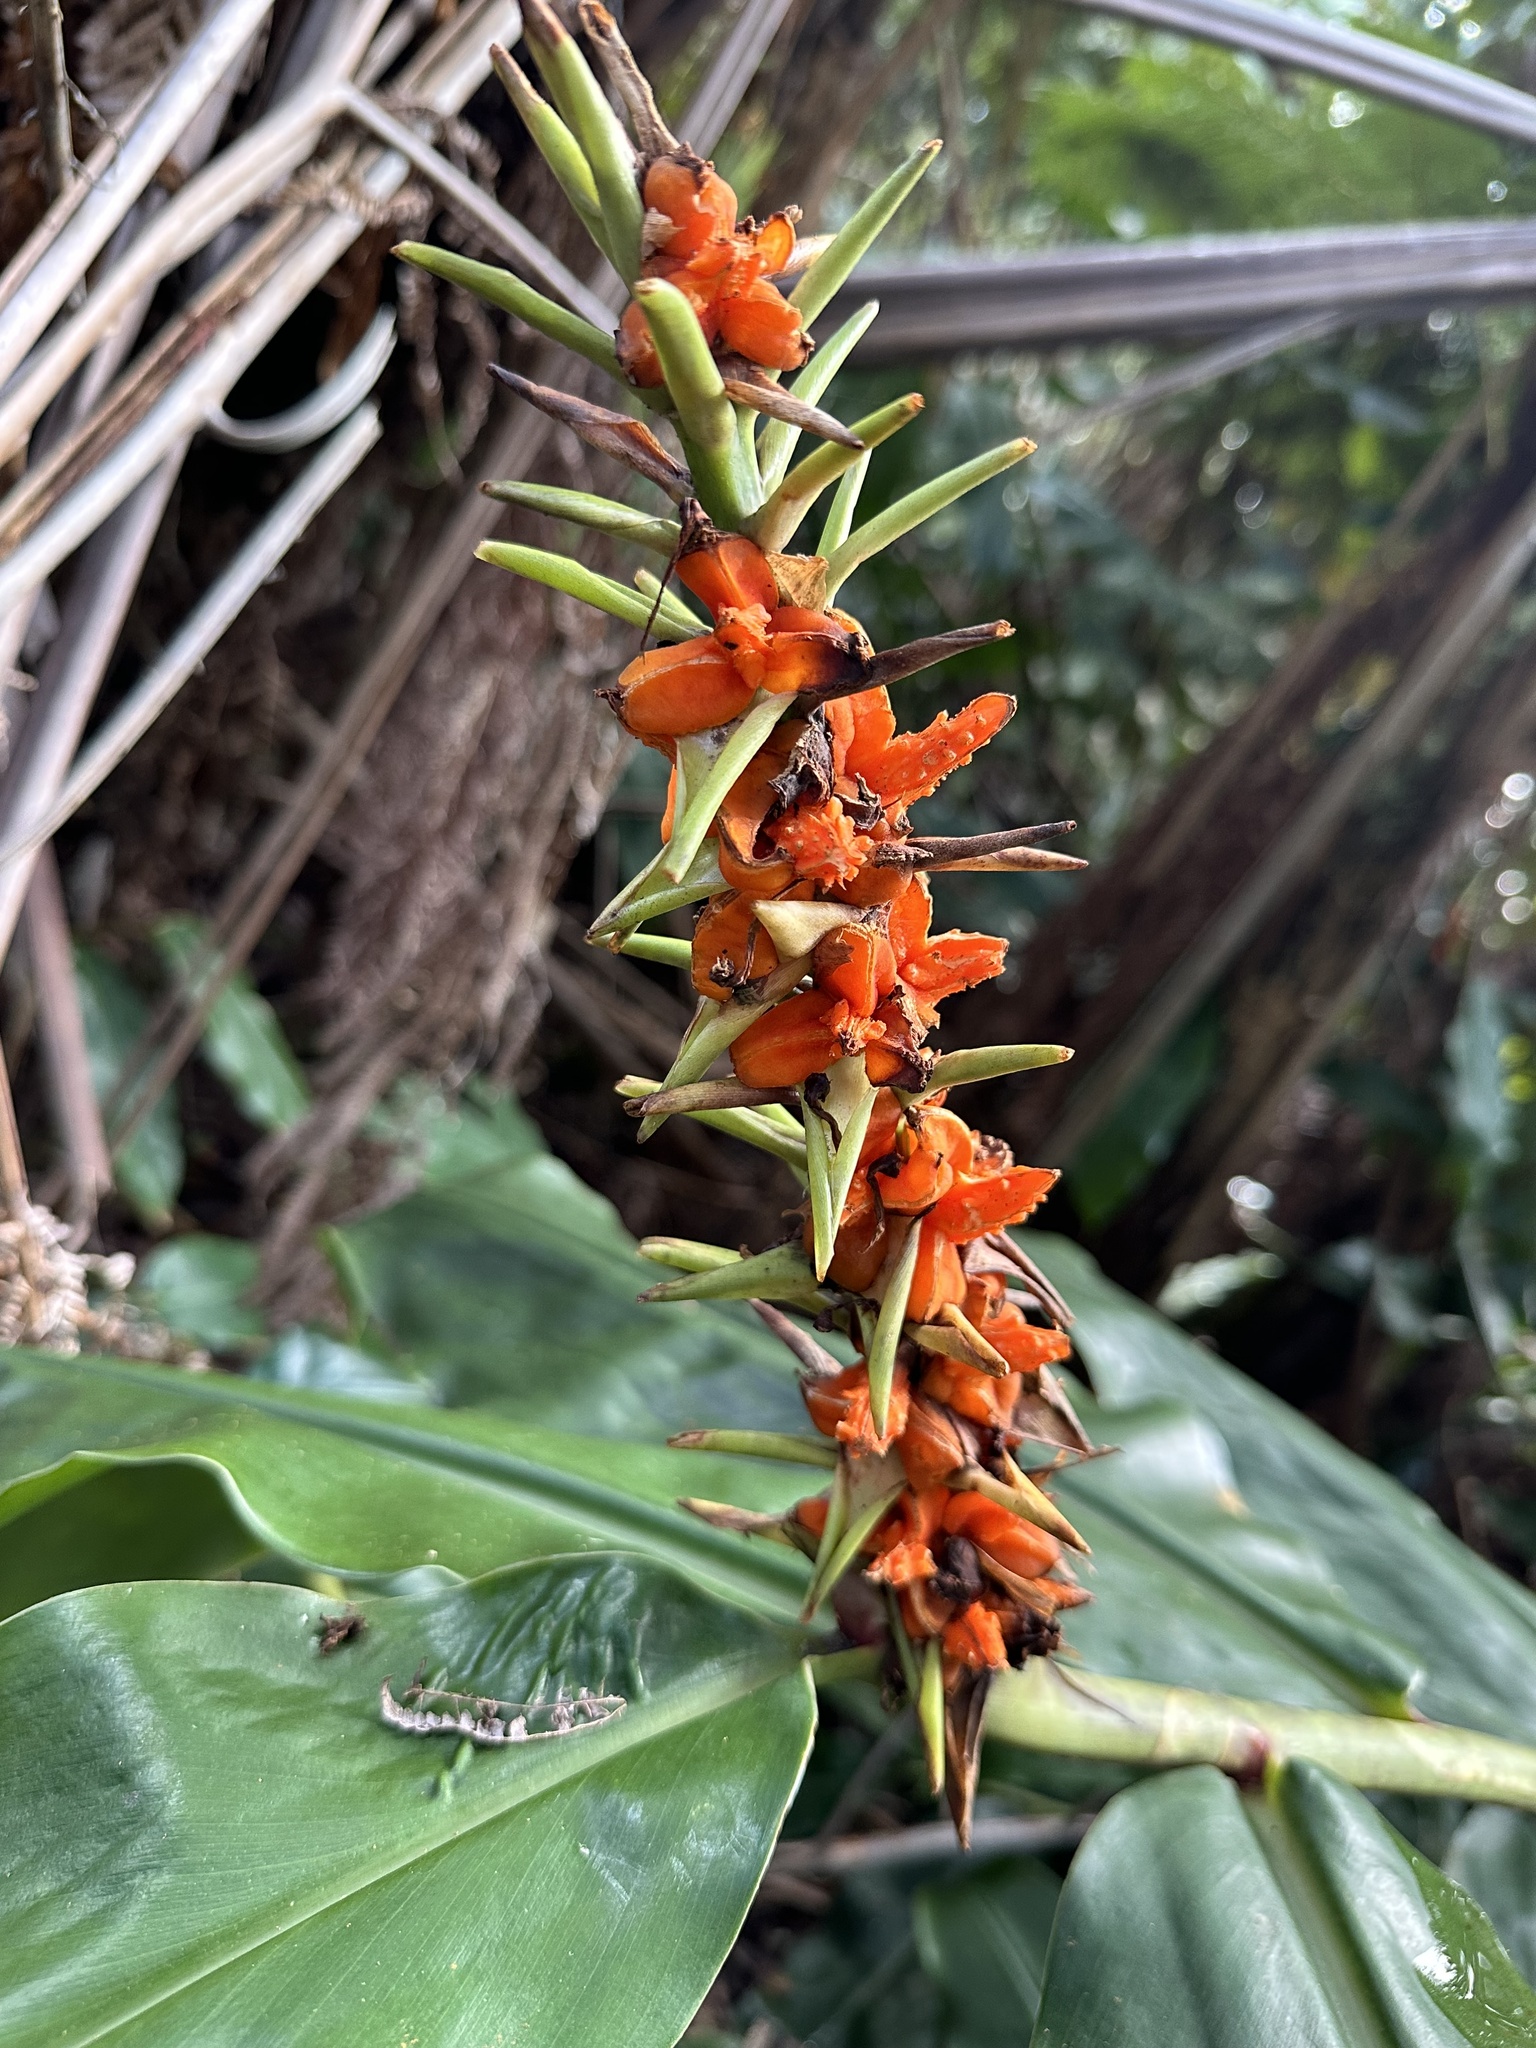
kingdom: Plantae
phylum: Tracheophyta
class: Liliopsida
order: Zingiberales
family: Zingiberaceae
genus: Hedychium
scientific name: Hedychium gardnerianum
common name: Himalayan ginger
